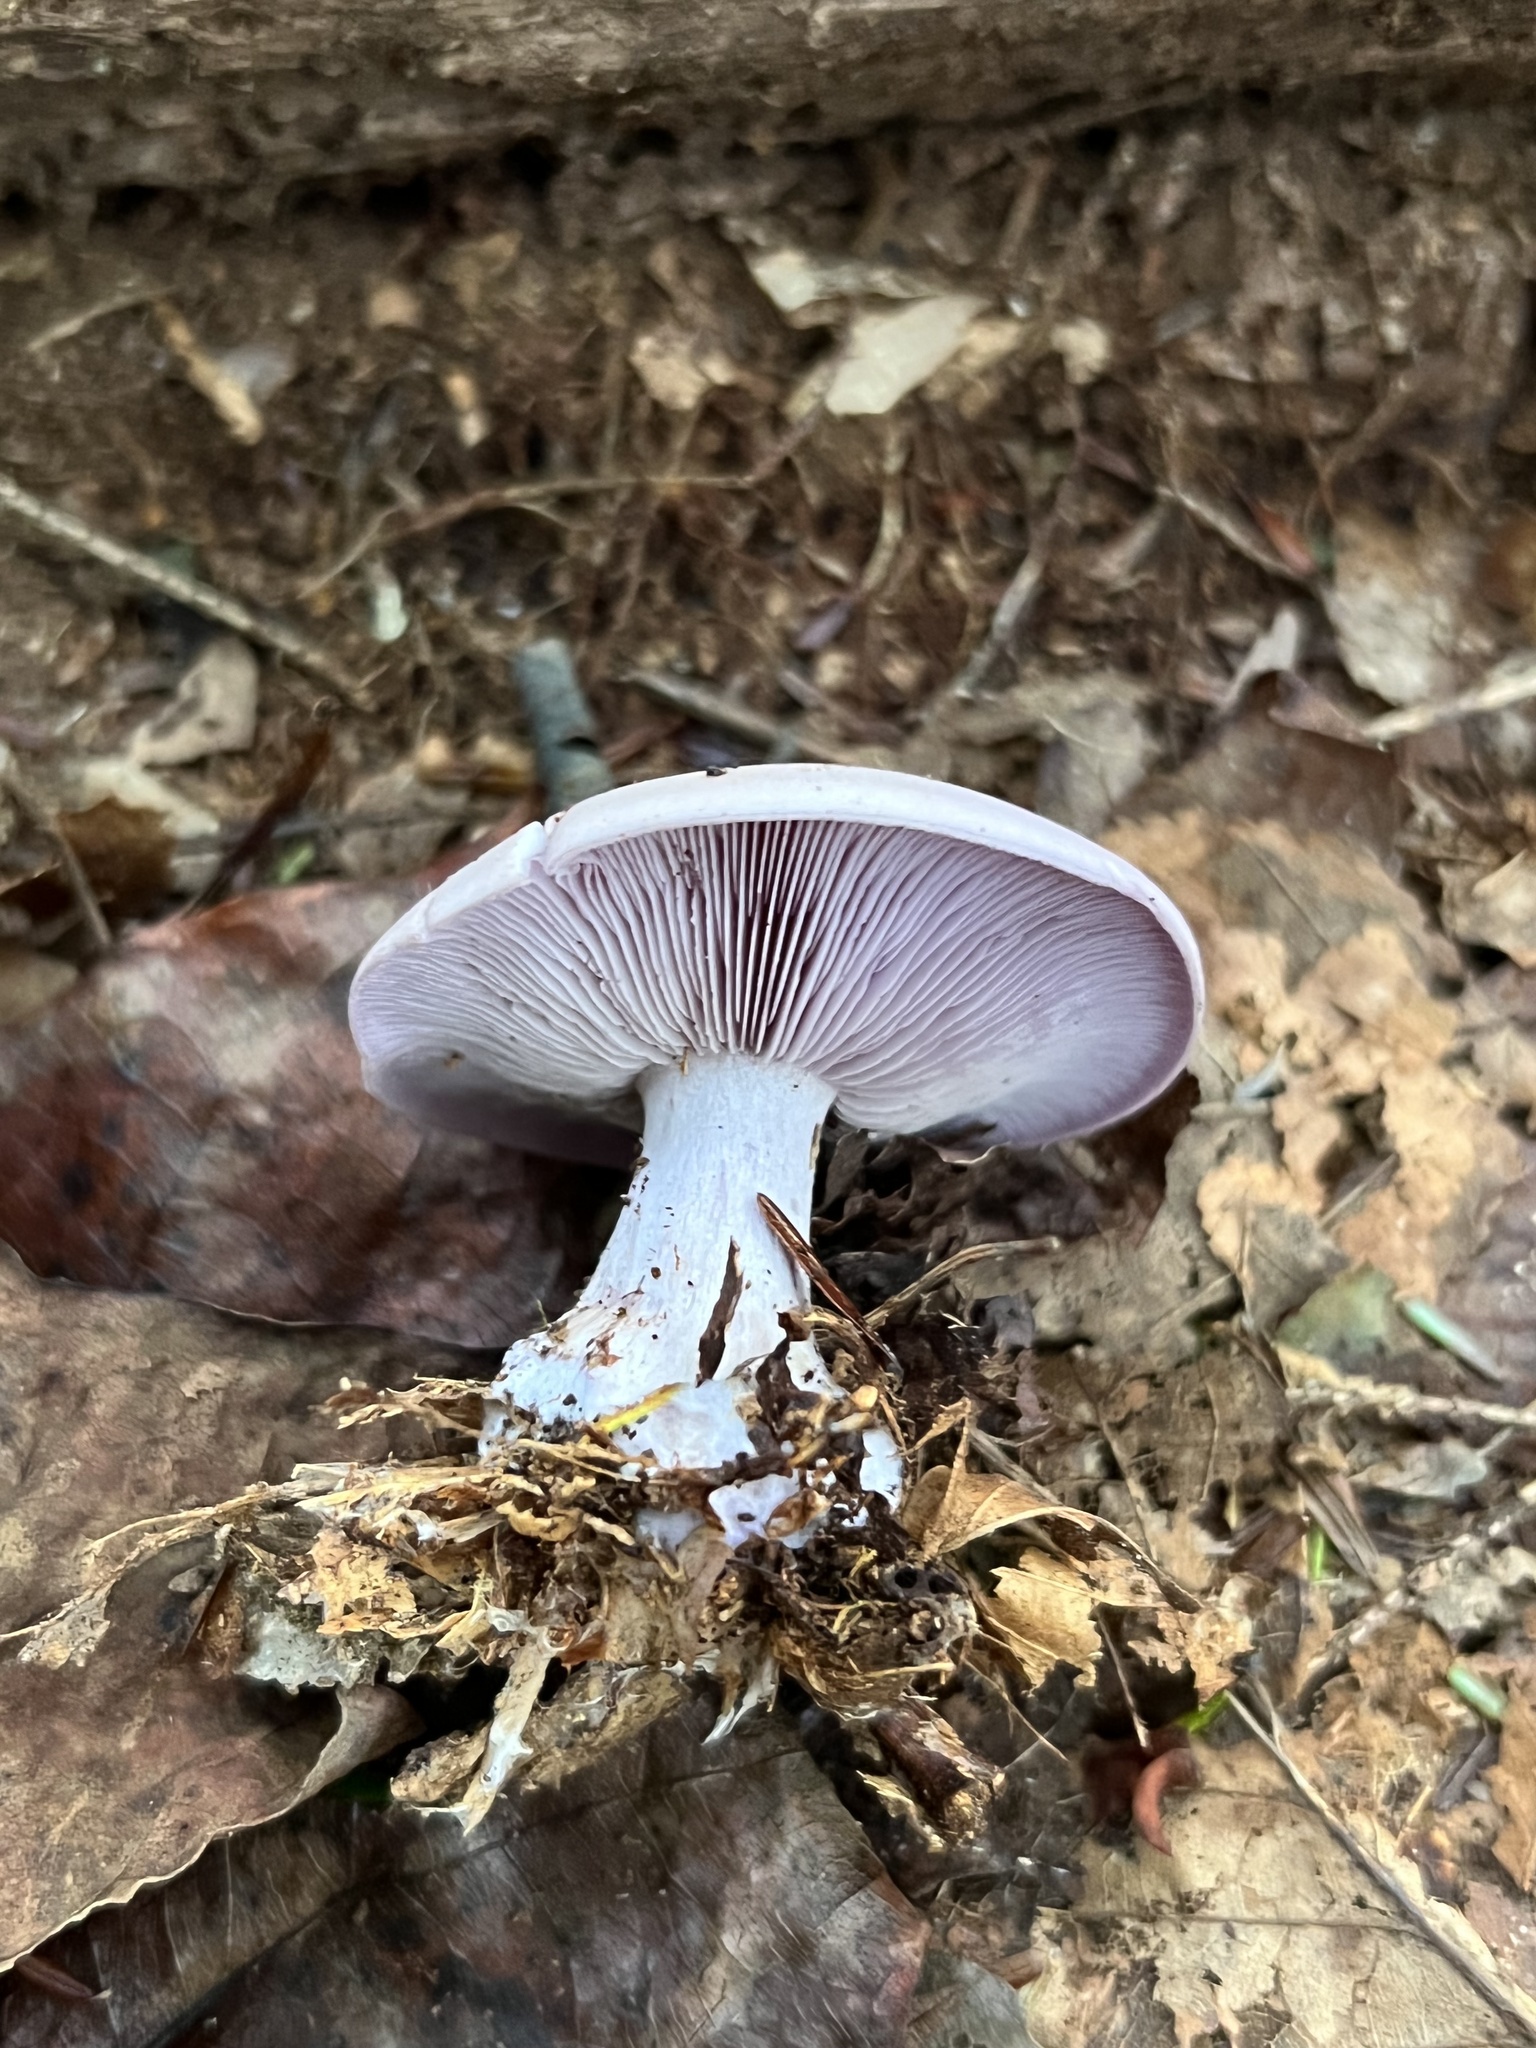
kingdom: Fungi
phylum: Basidiomycota
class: Agaricomycetes
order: Agaricales
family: Tricholomataceae
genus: Collybia
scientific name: Collybia
